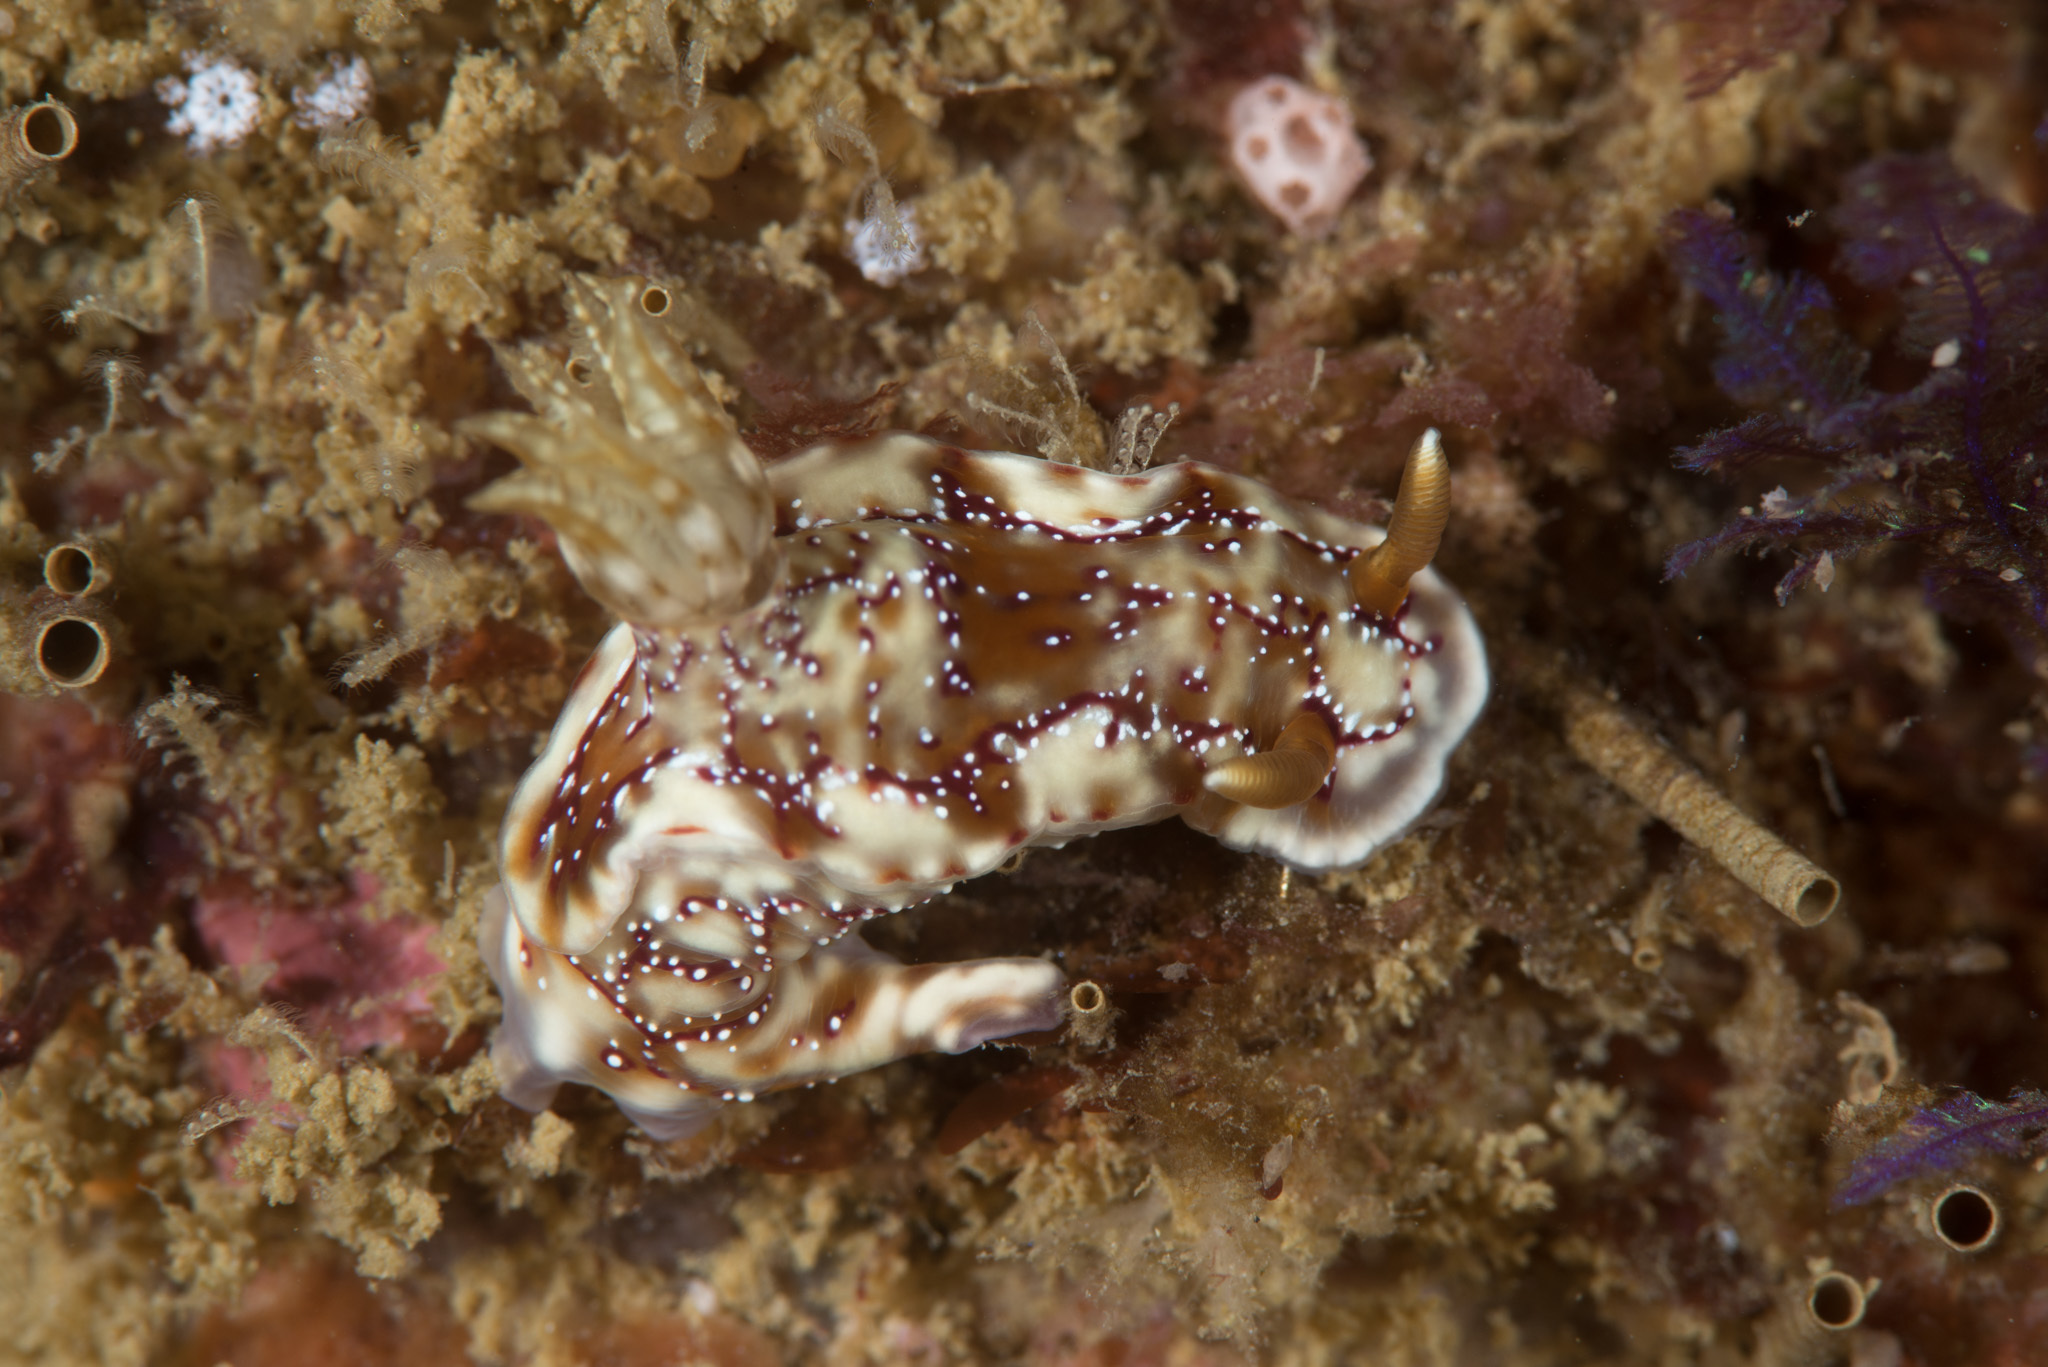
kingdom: Animalia
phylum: Mollusca
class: Gastropoda
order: Nudibranchia
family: Chromodorididae
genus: Hypselodoris
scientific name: Hypselodoris krakatoa
